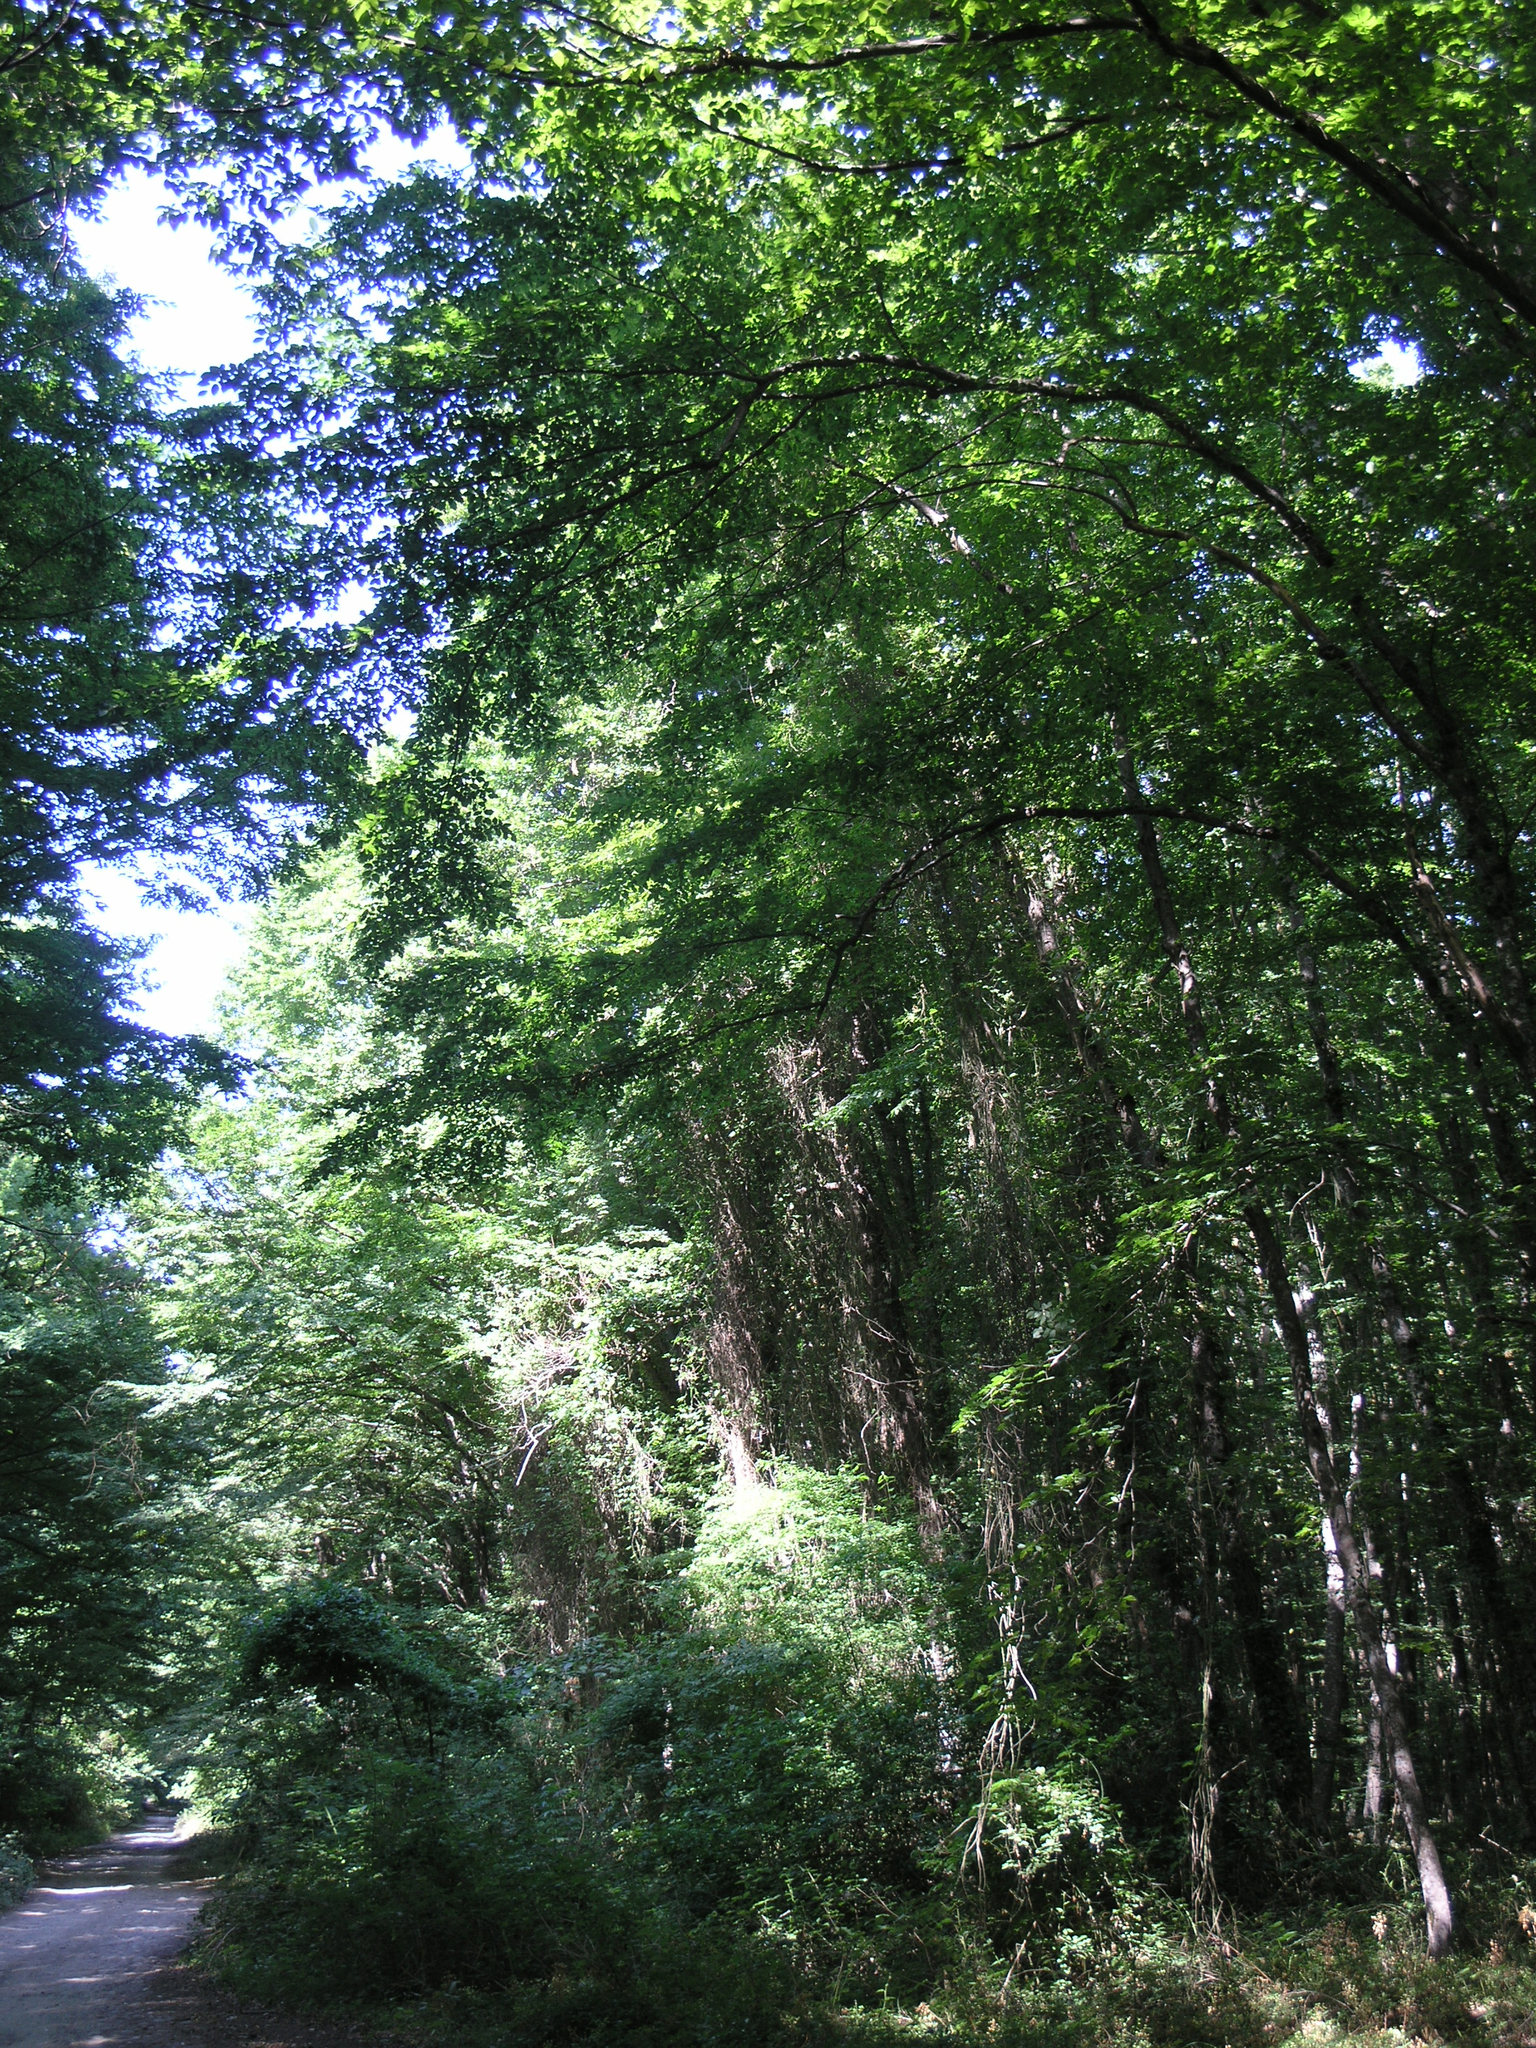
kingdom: Plantae
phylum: Tracheophyta
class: Magnoliopsida
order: Fagales
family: Betulaceae
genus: Carpinus
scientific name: Carpinus betulus
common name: Hornbeam
